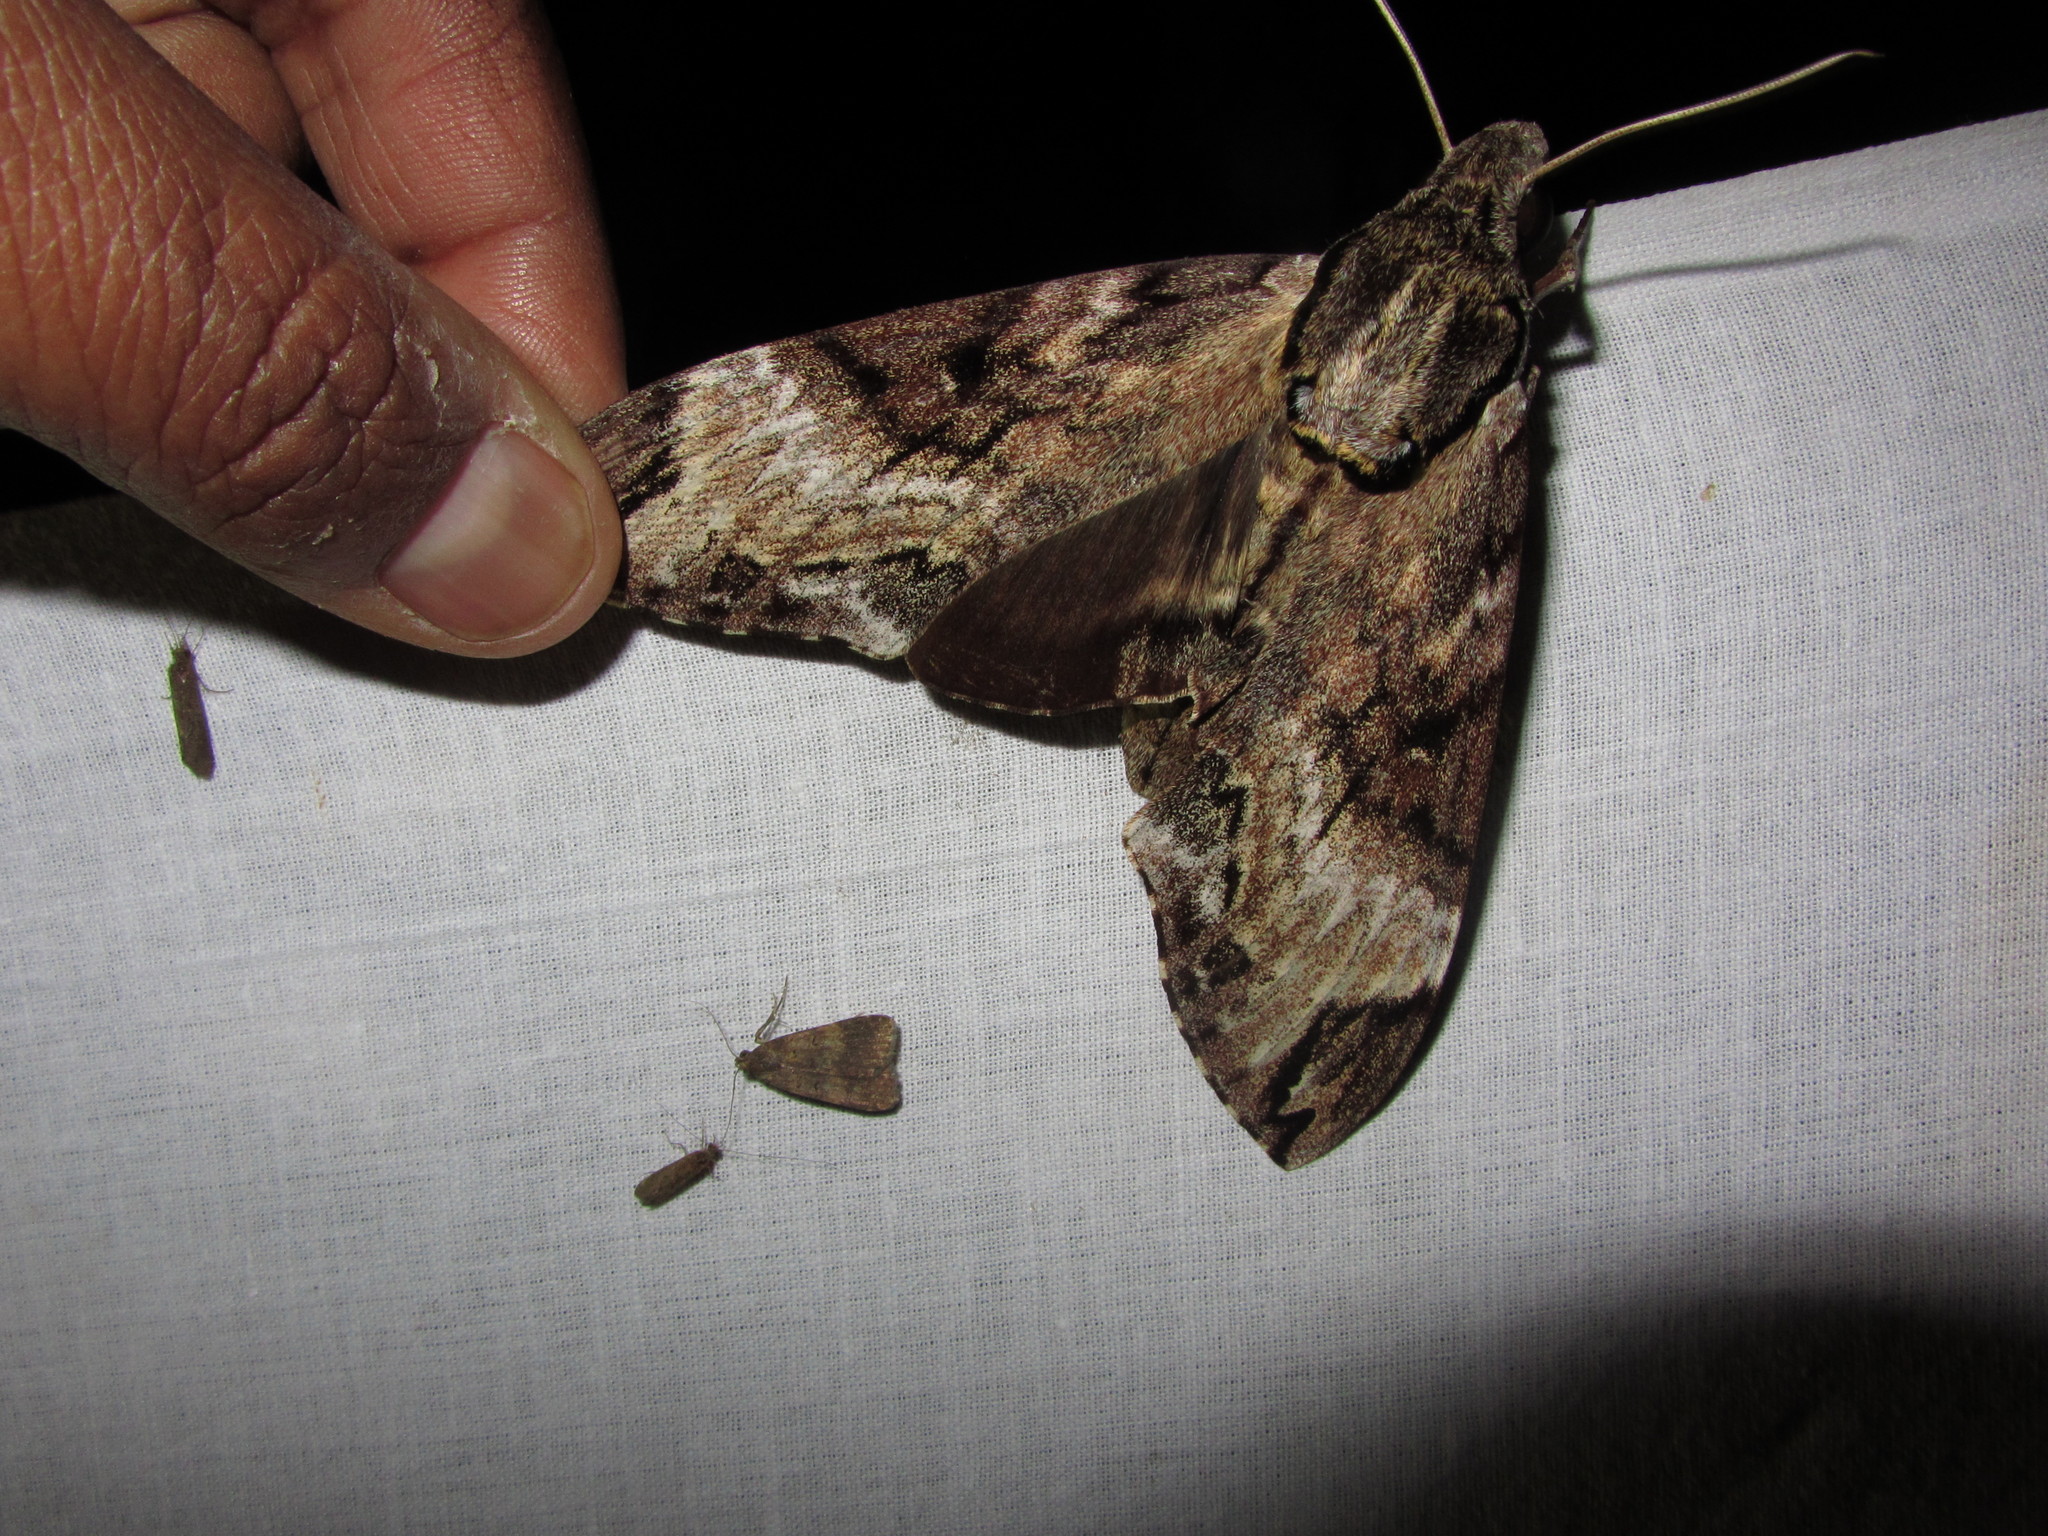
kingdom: Animalia
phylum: Arthropoda
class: Insecta
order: Lepidoptera
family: Sphingidae
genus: Psilogramma
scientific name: Psilogramma discistriga
